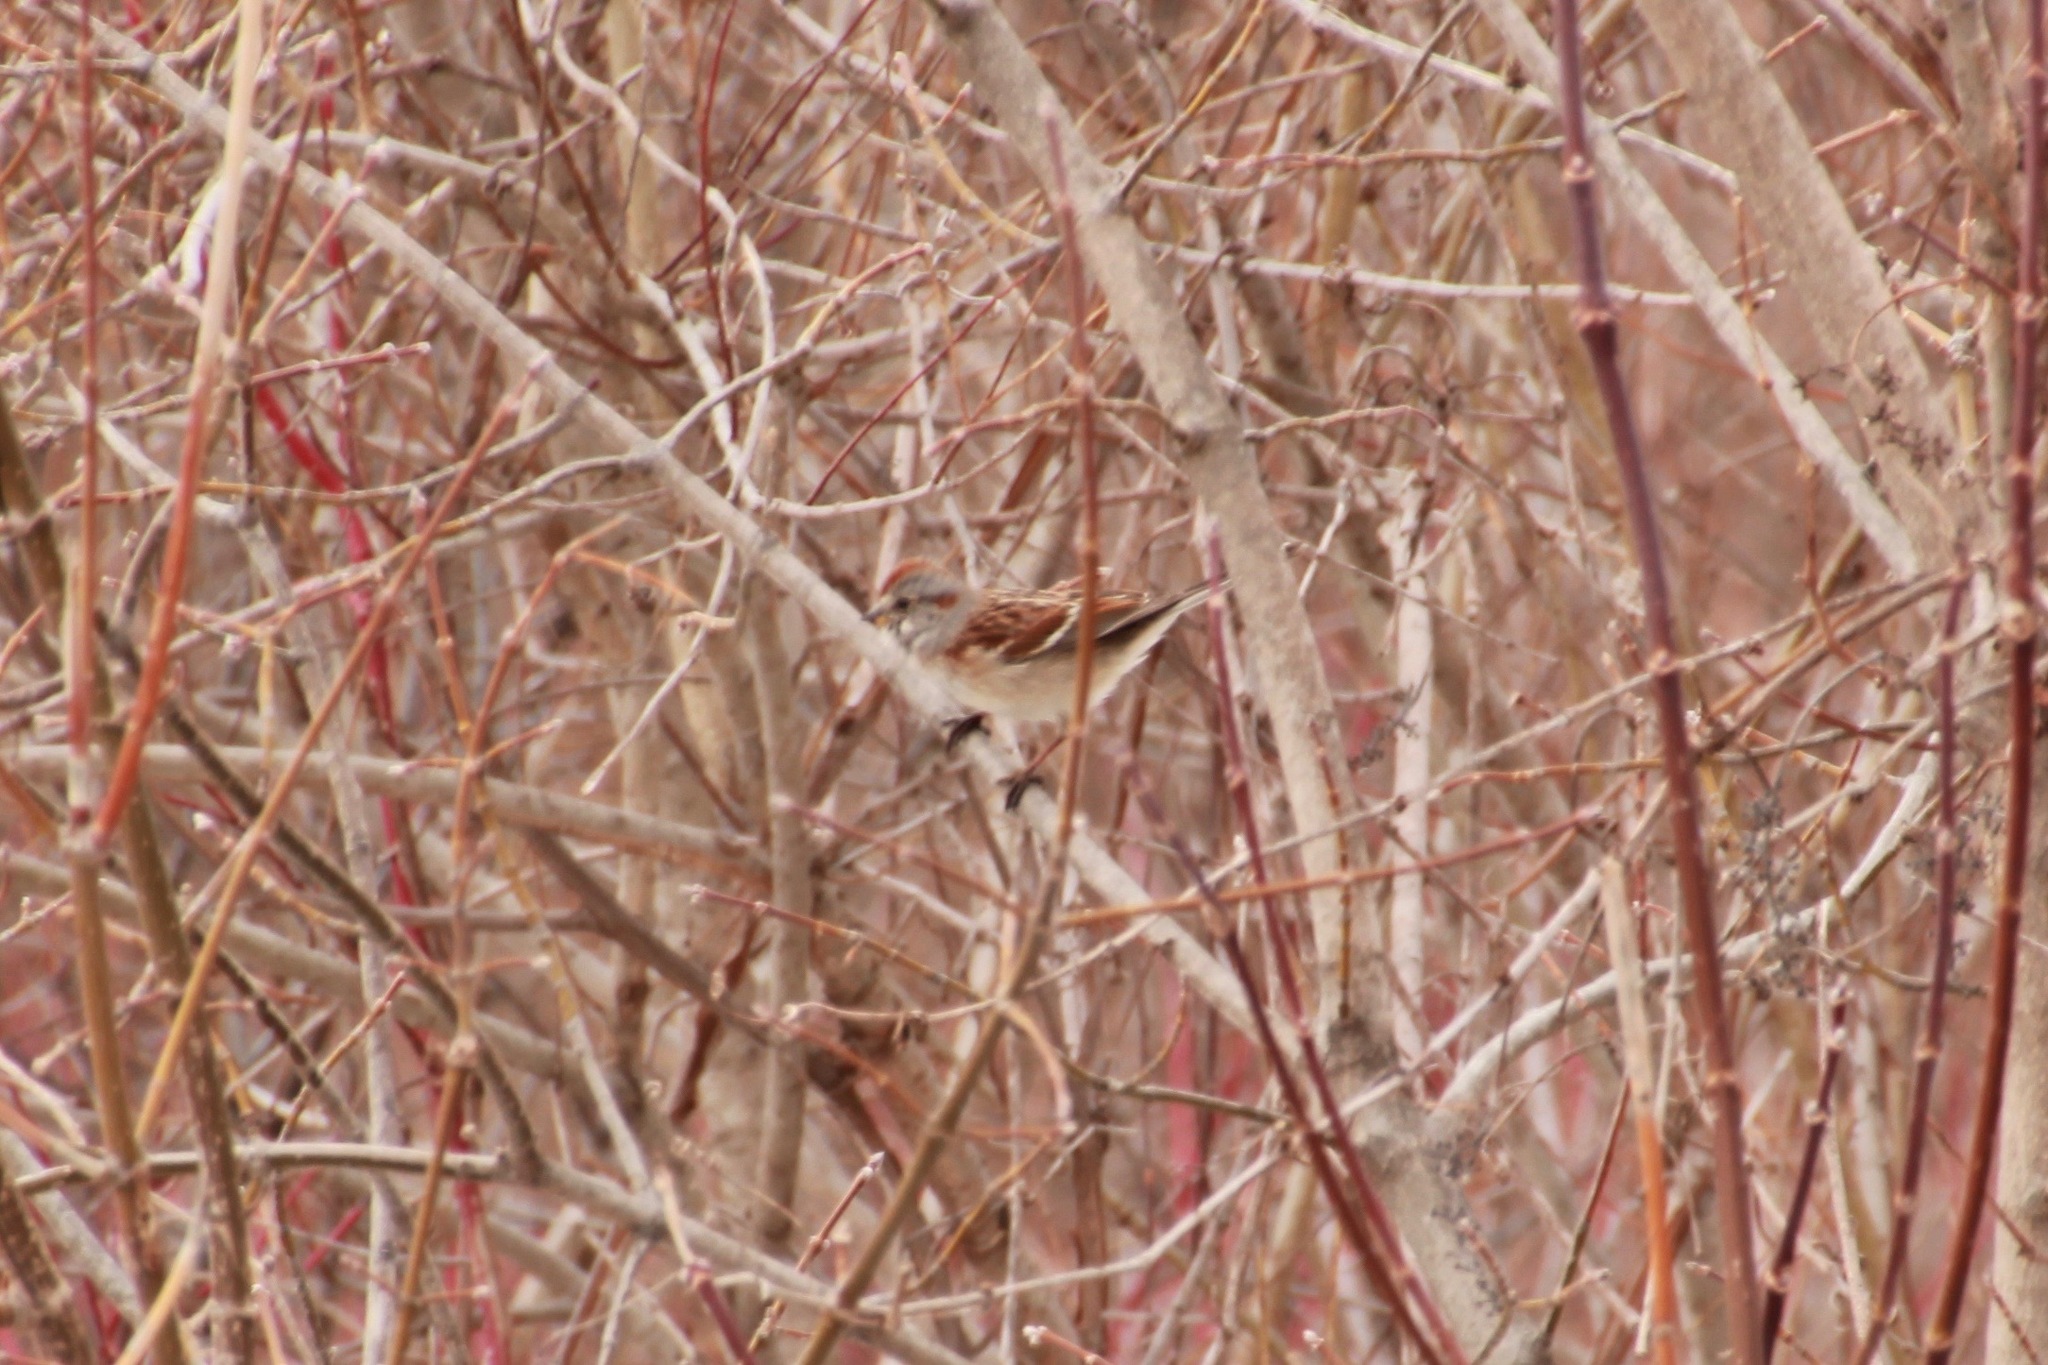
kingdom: Animalia
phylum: Chordata
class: Aves
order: Passeriformes
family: Passerellidae
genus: Spizelloides
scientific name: Spizelloides arborea
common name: American tree sparrow
